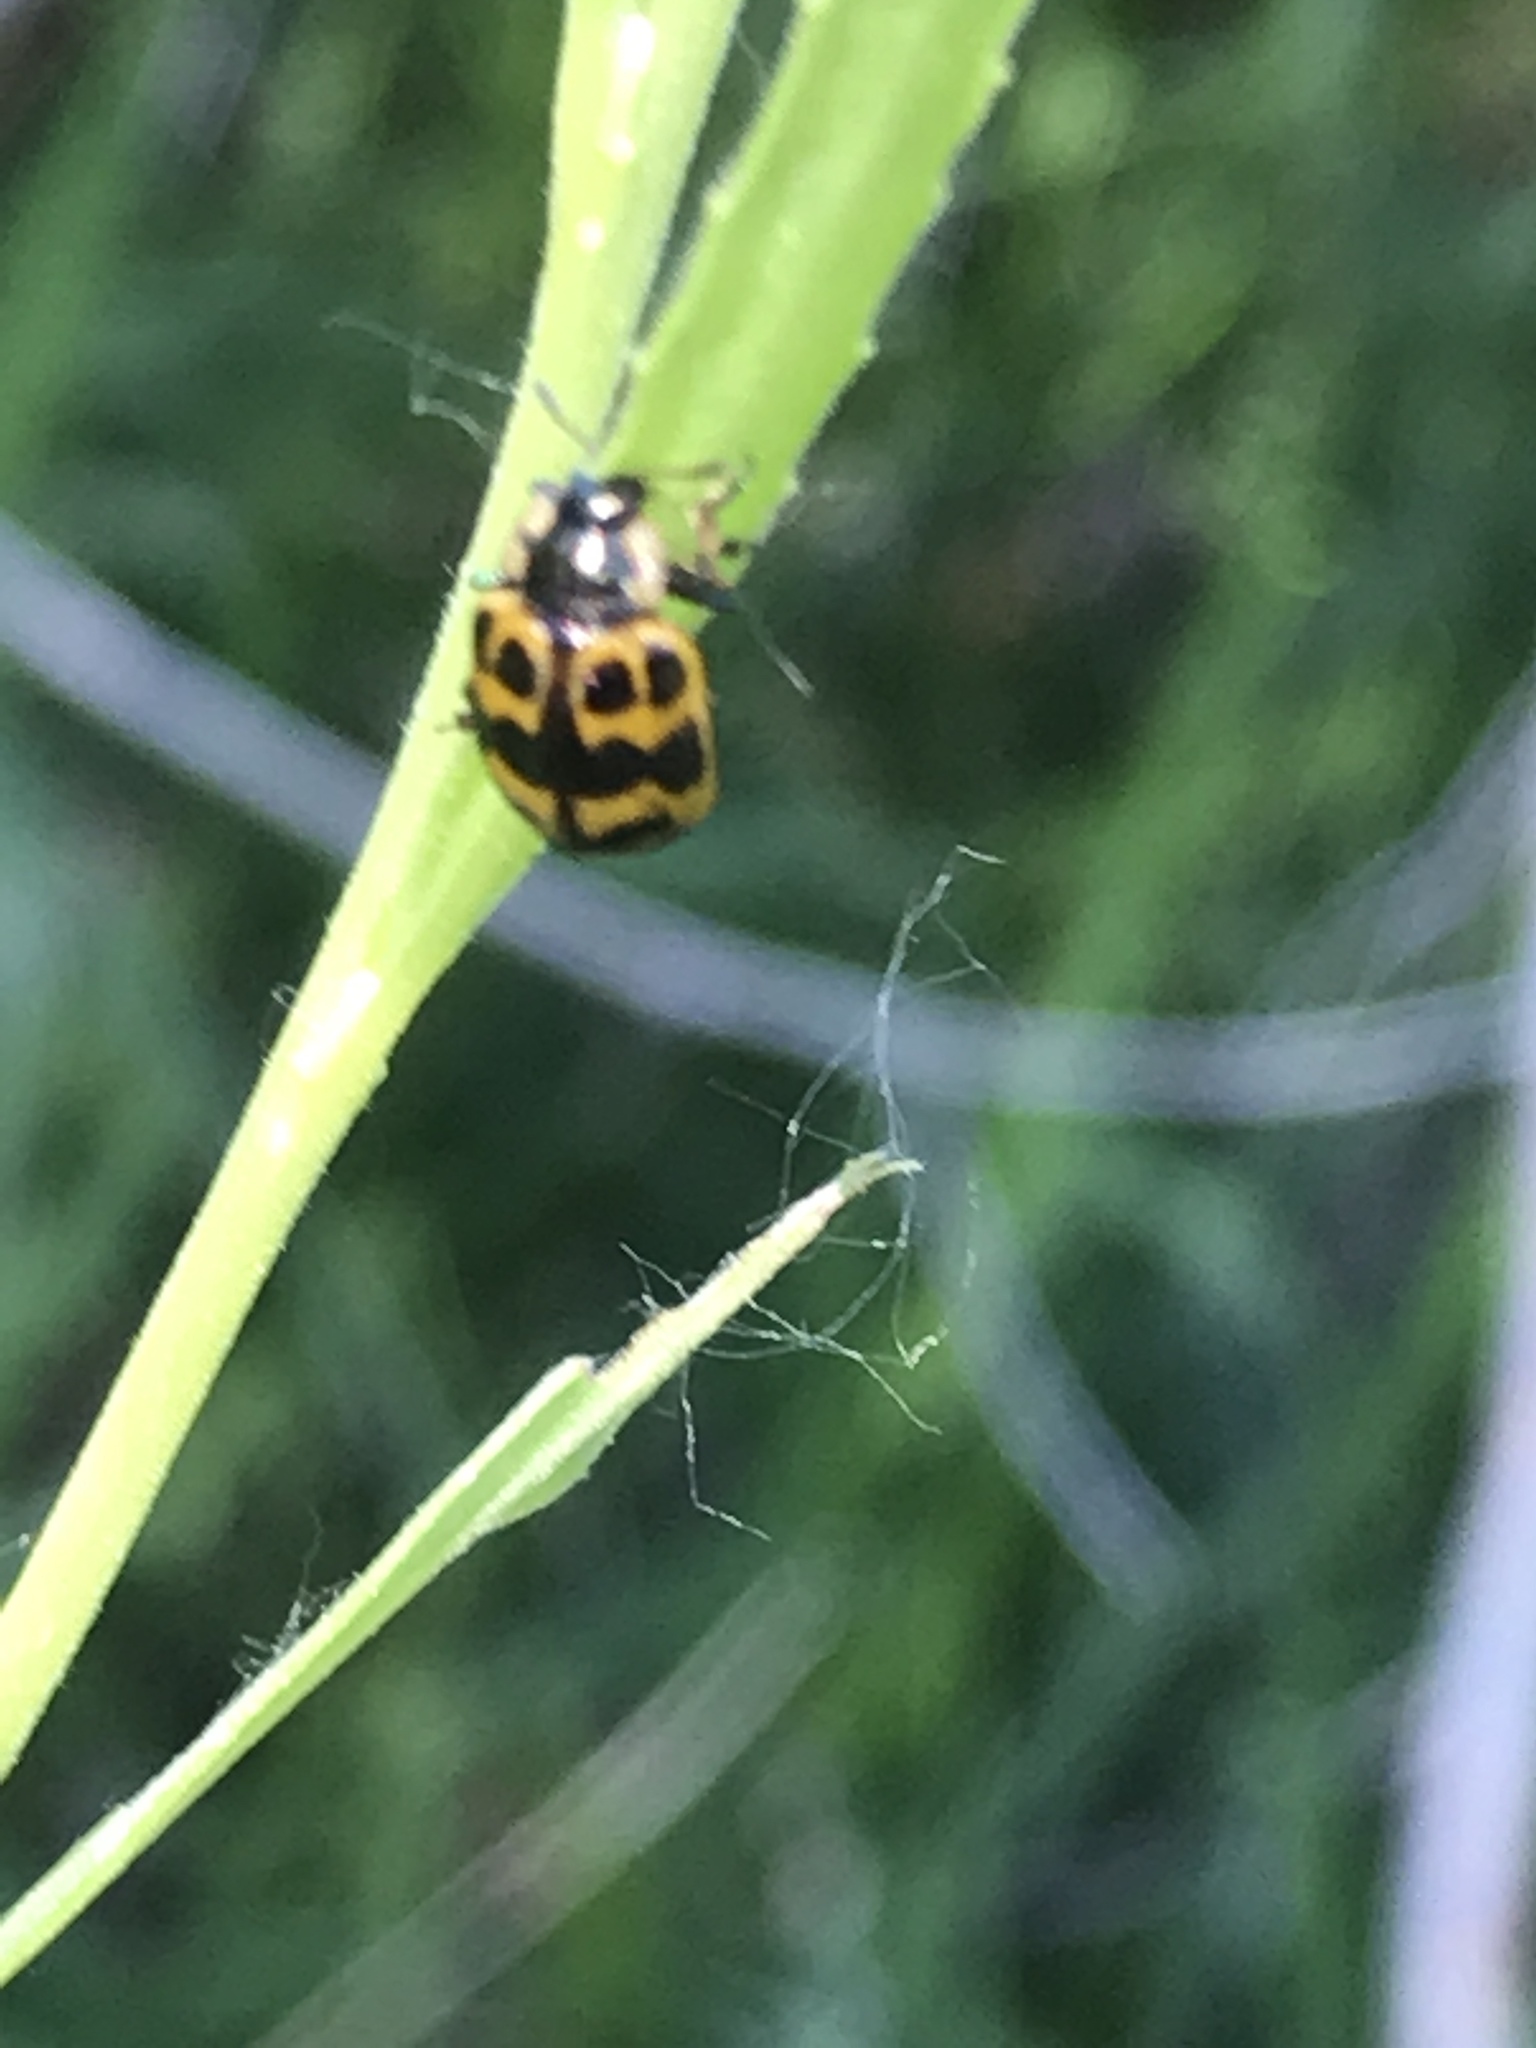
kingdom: Animalia
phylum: Arthropoda
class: Insecta
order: Coleoptera
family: Chrysomelidae
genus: Labidomera
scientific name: Labidomera clivicollis
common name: Swamp milkweed leaf beetle
